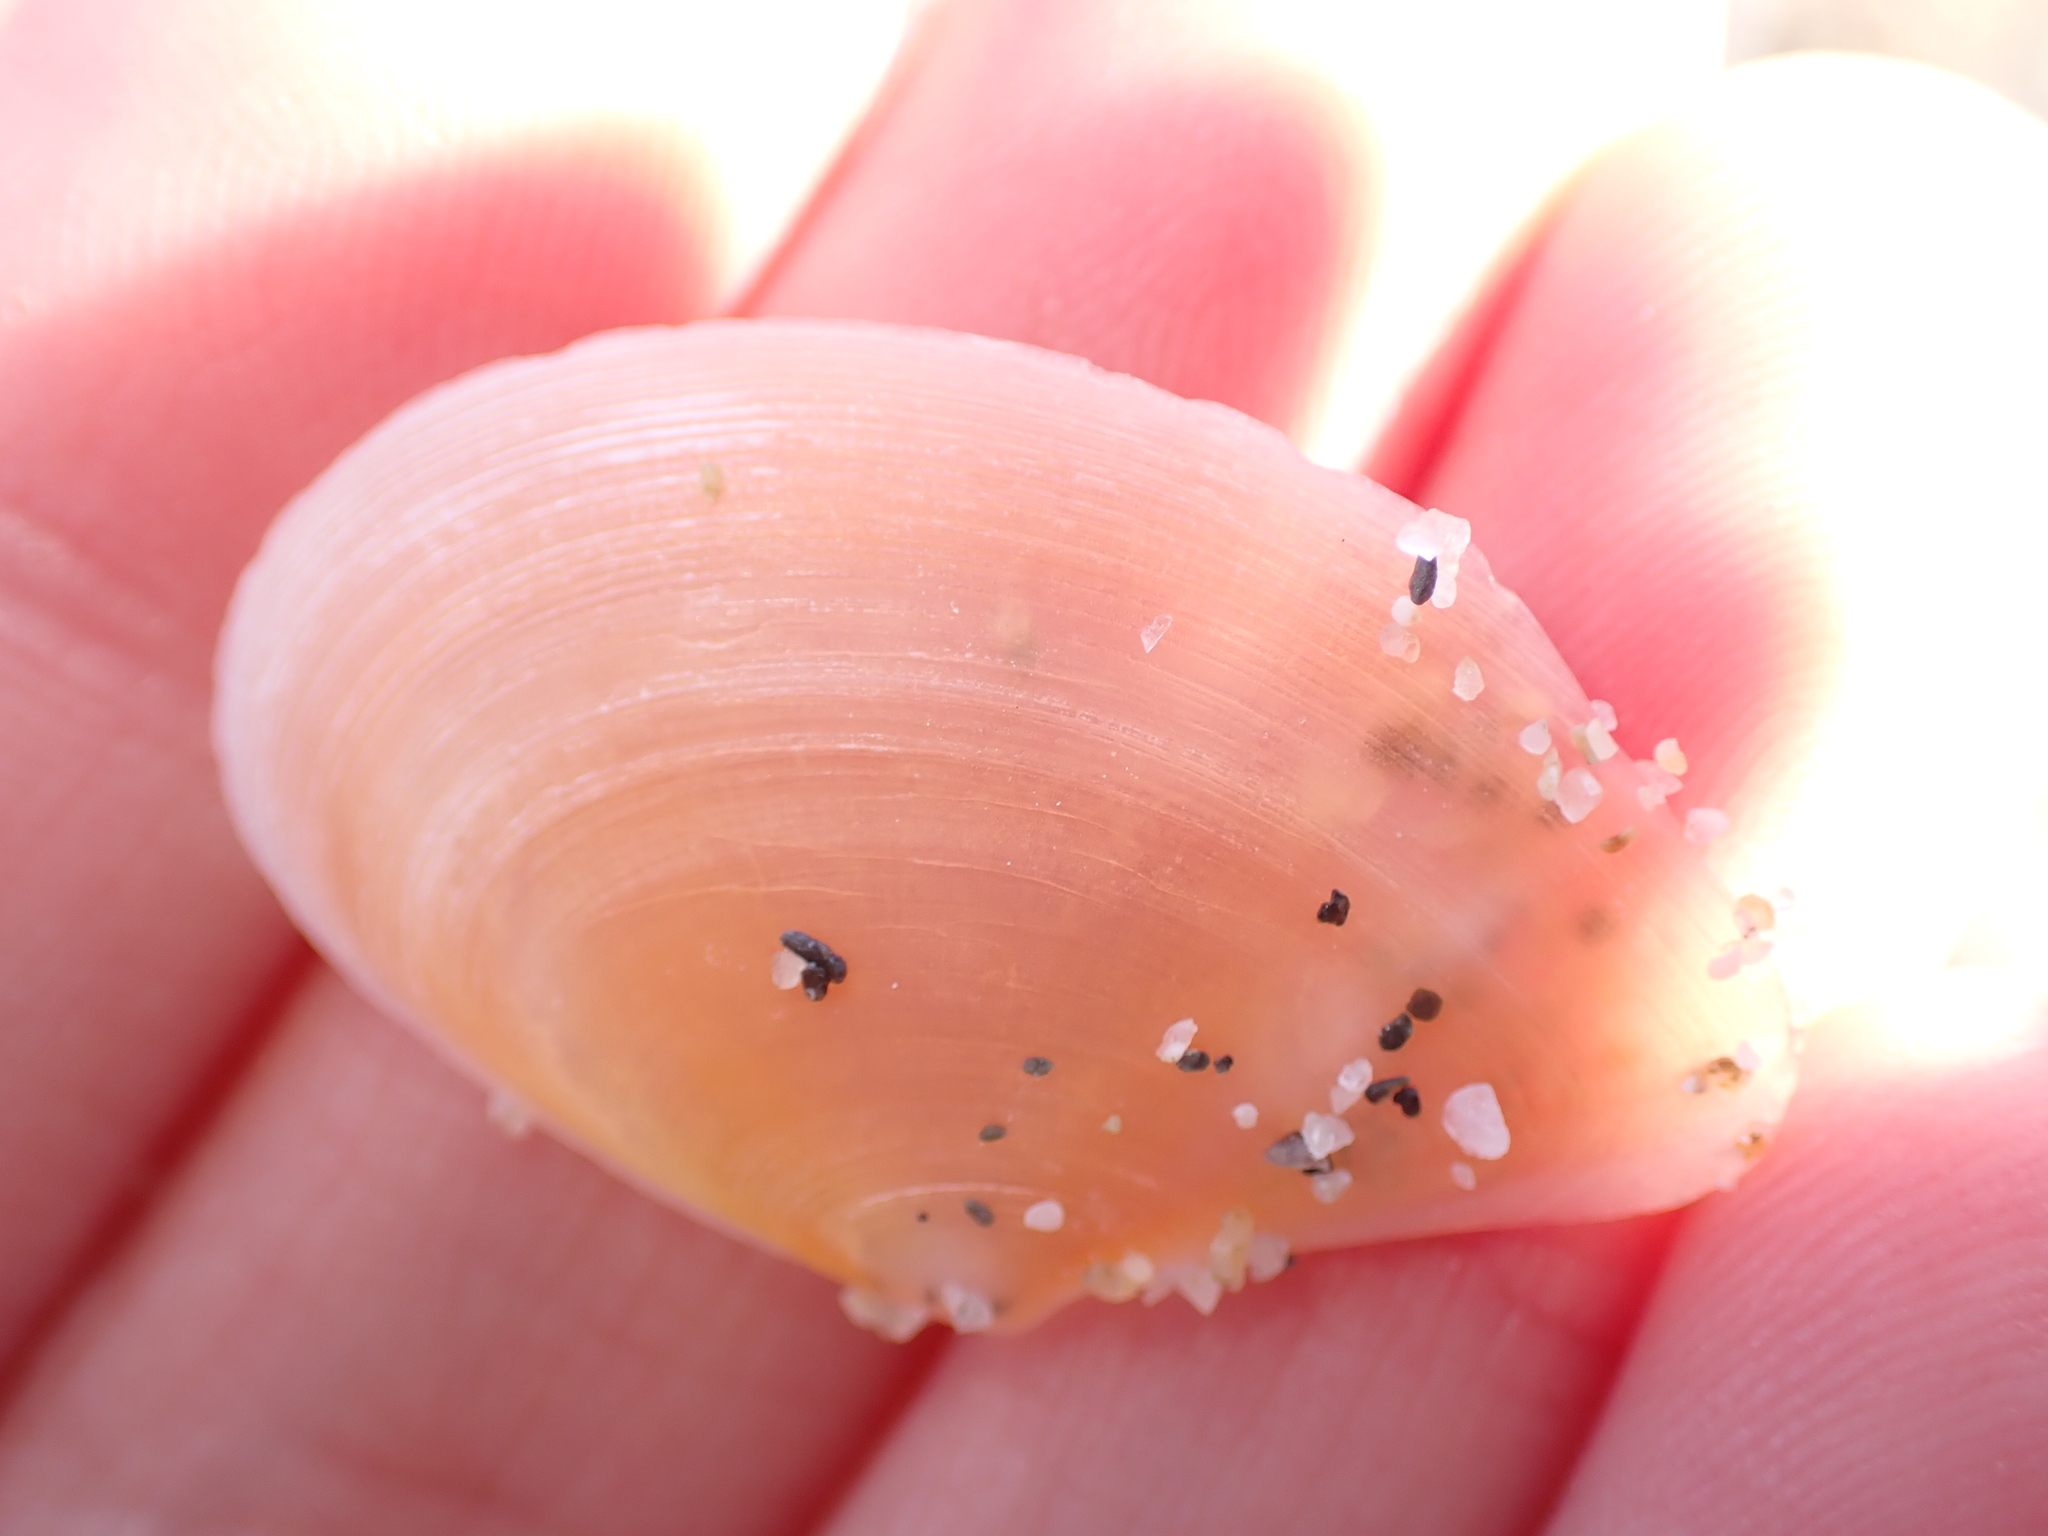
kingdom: Animalia
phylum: Mollusca
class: Bivalvia
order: Cardiida
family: Tellinidae
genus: Bosemprella
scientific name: Bosemprella incarnata
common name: Red tellin
